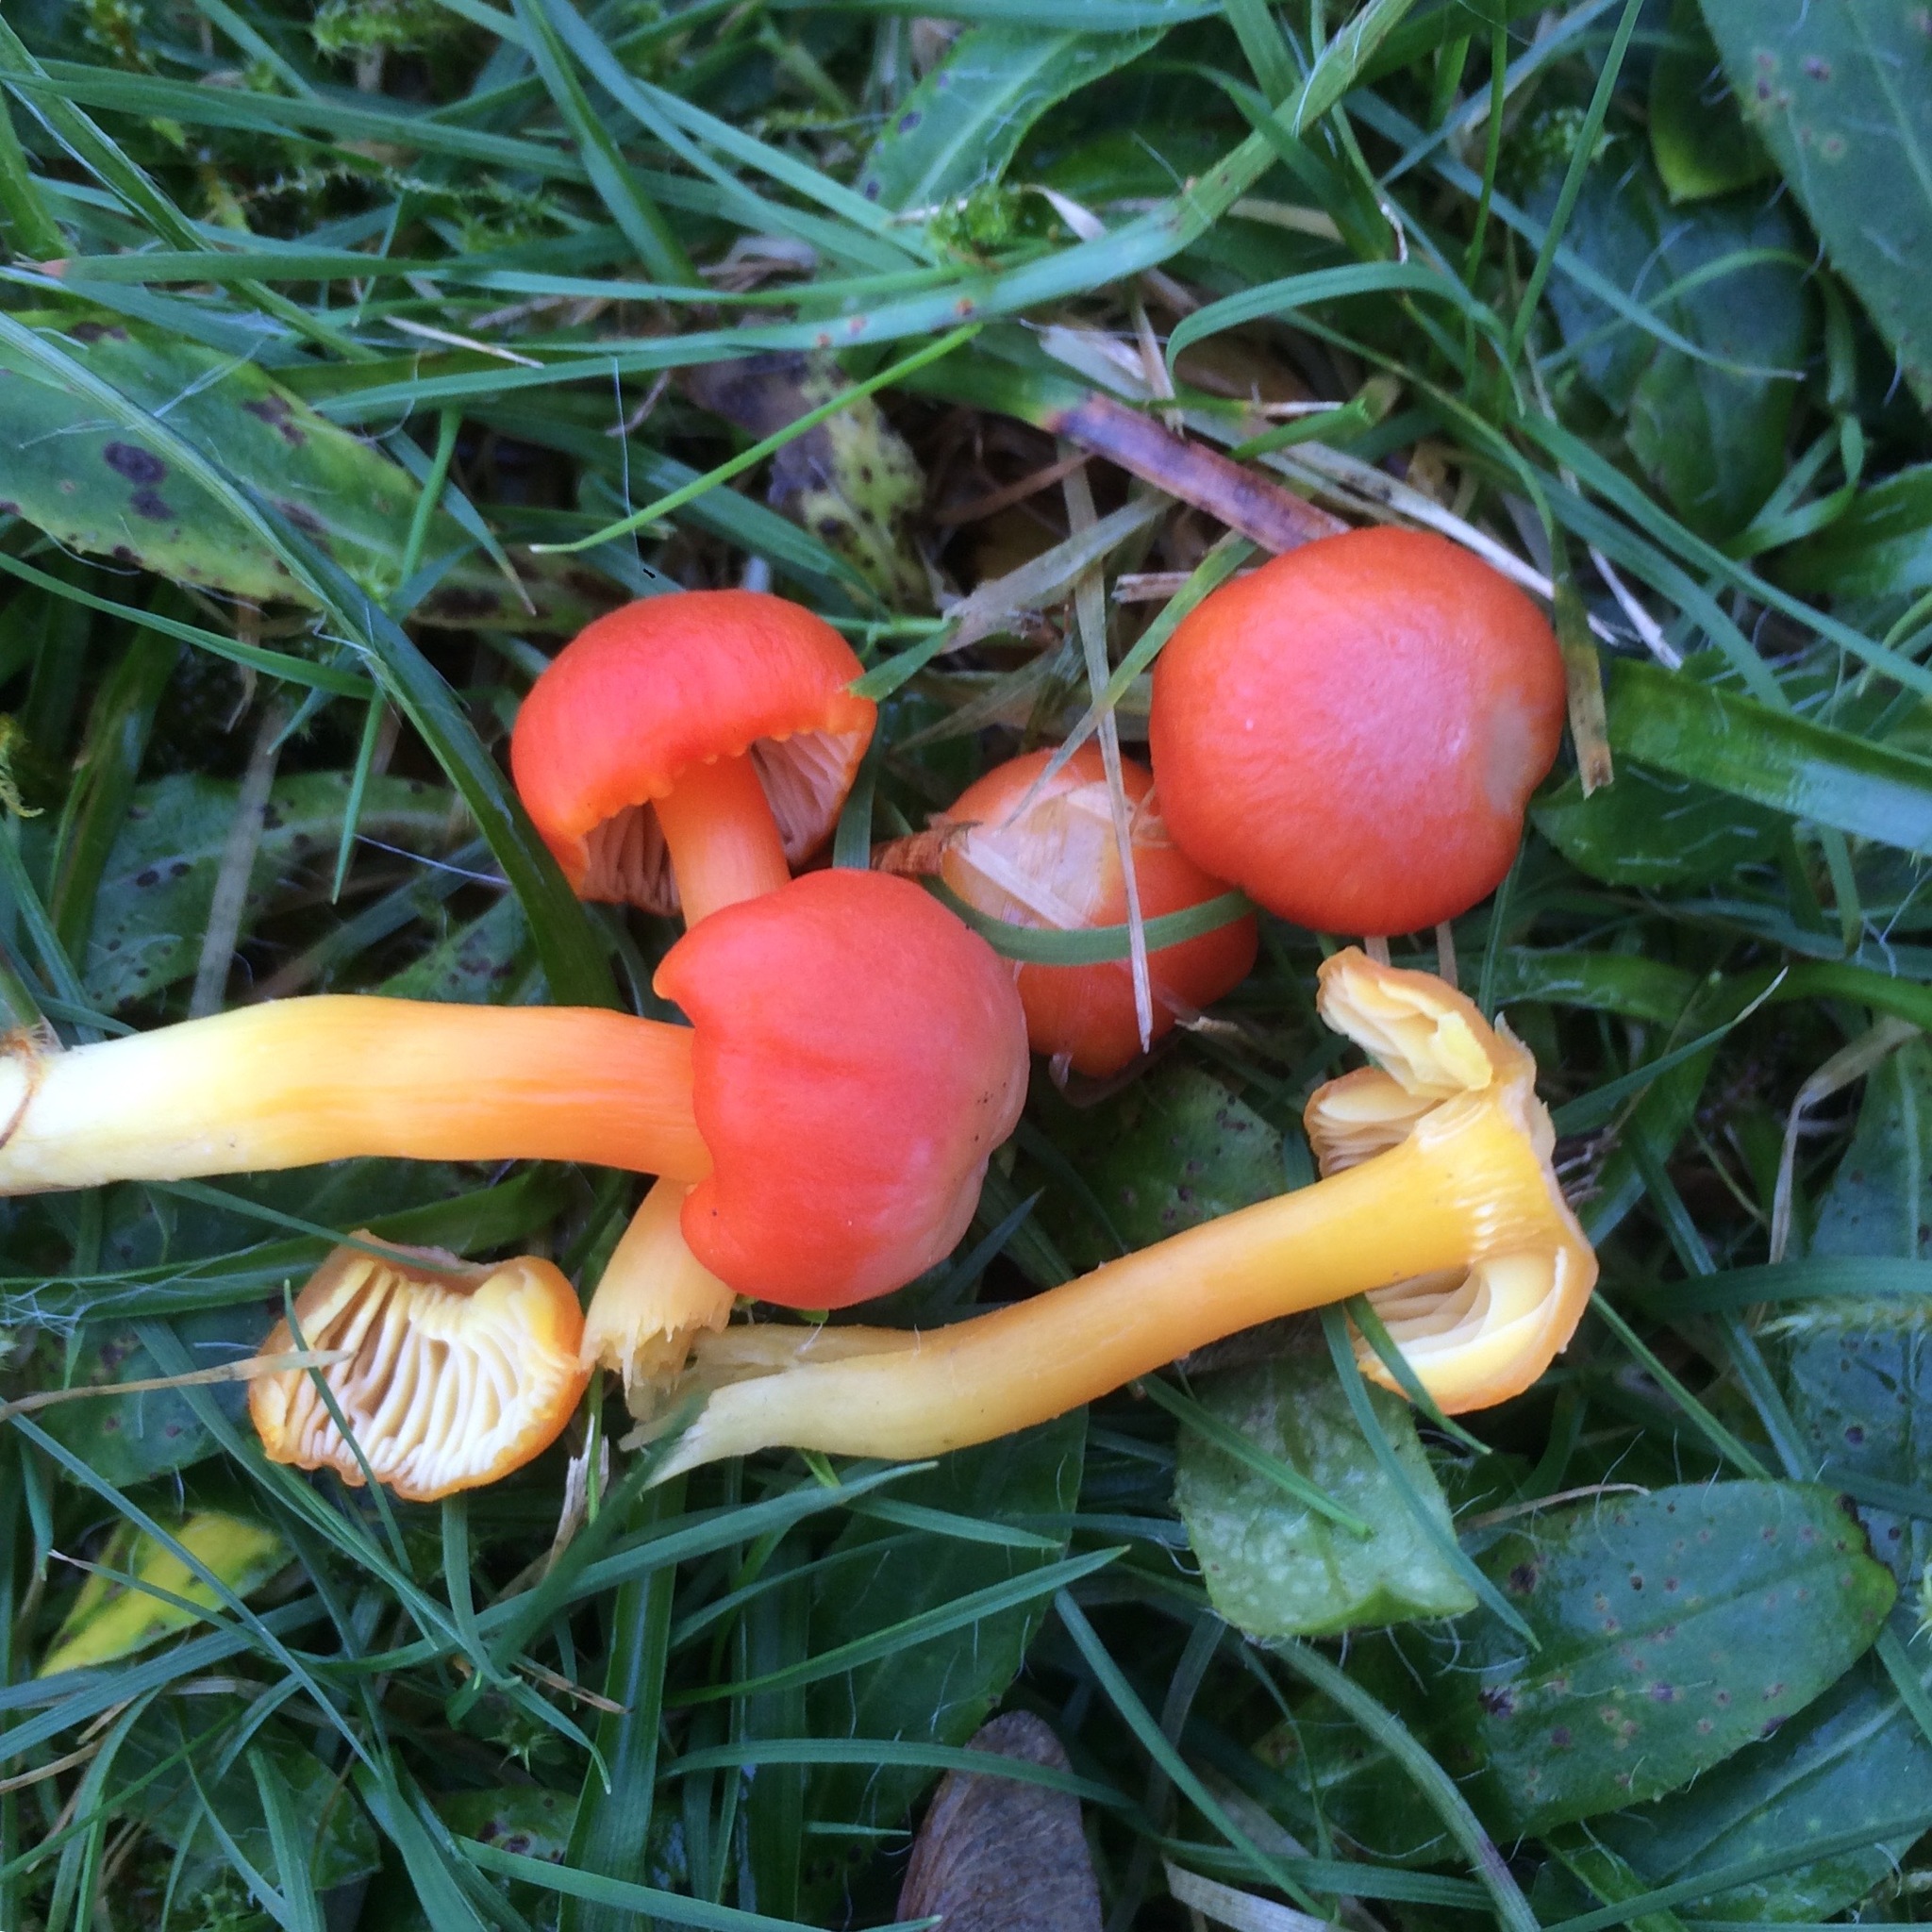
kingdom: Fungi
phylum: Basidiomycota
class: Agaricomycetes
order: Agaricales
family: Hygrophoraceae
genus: Hygrocybe
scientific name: Hygrocybe reidii
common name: Honey waxcap
